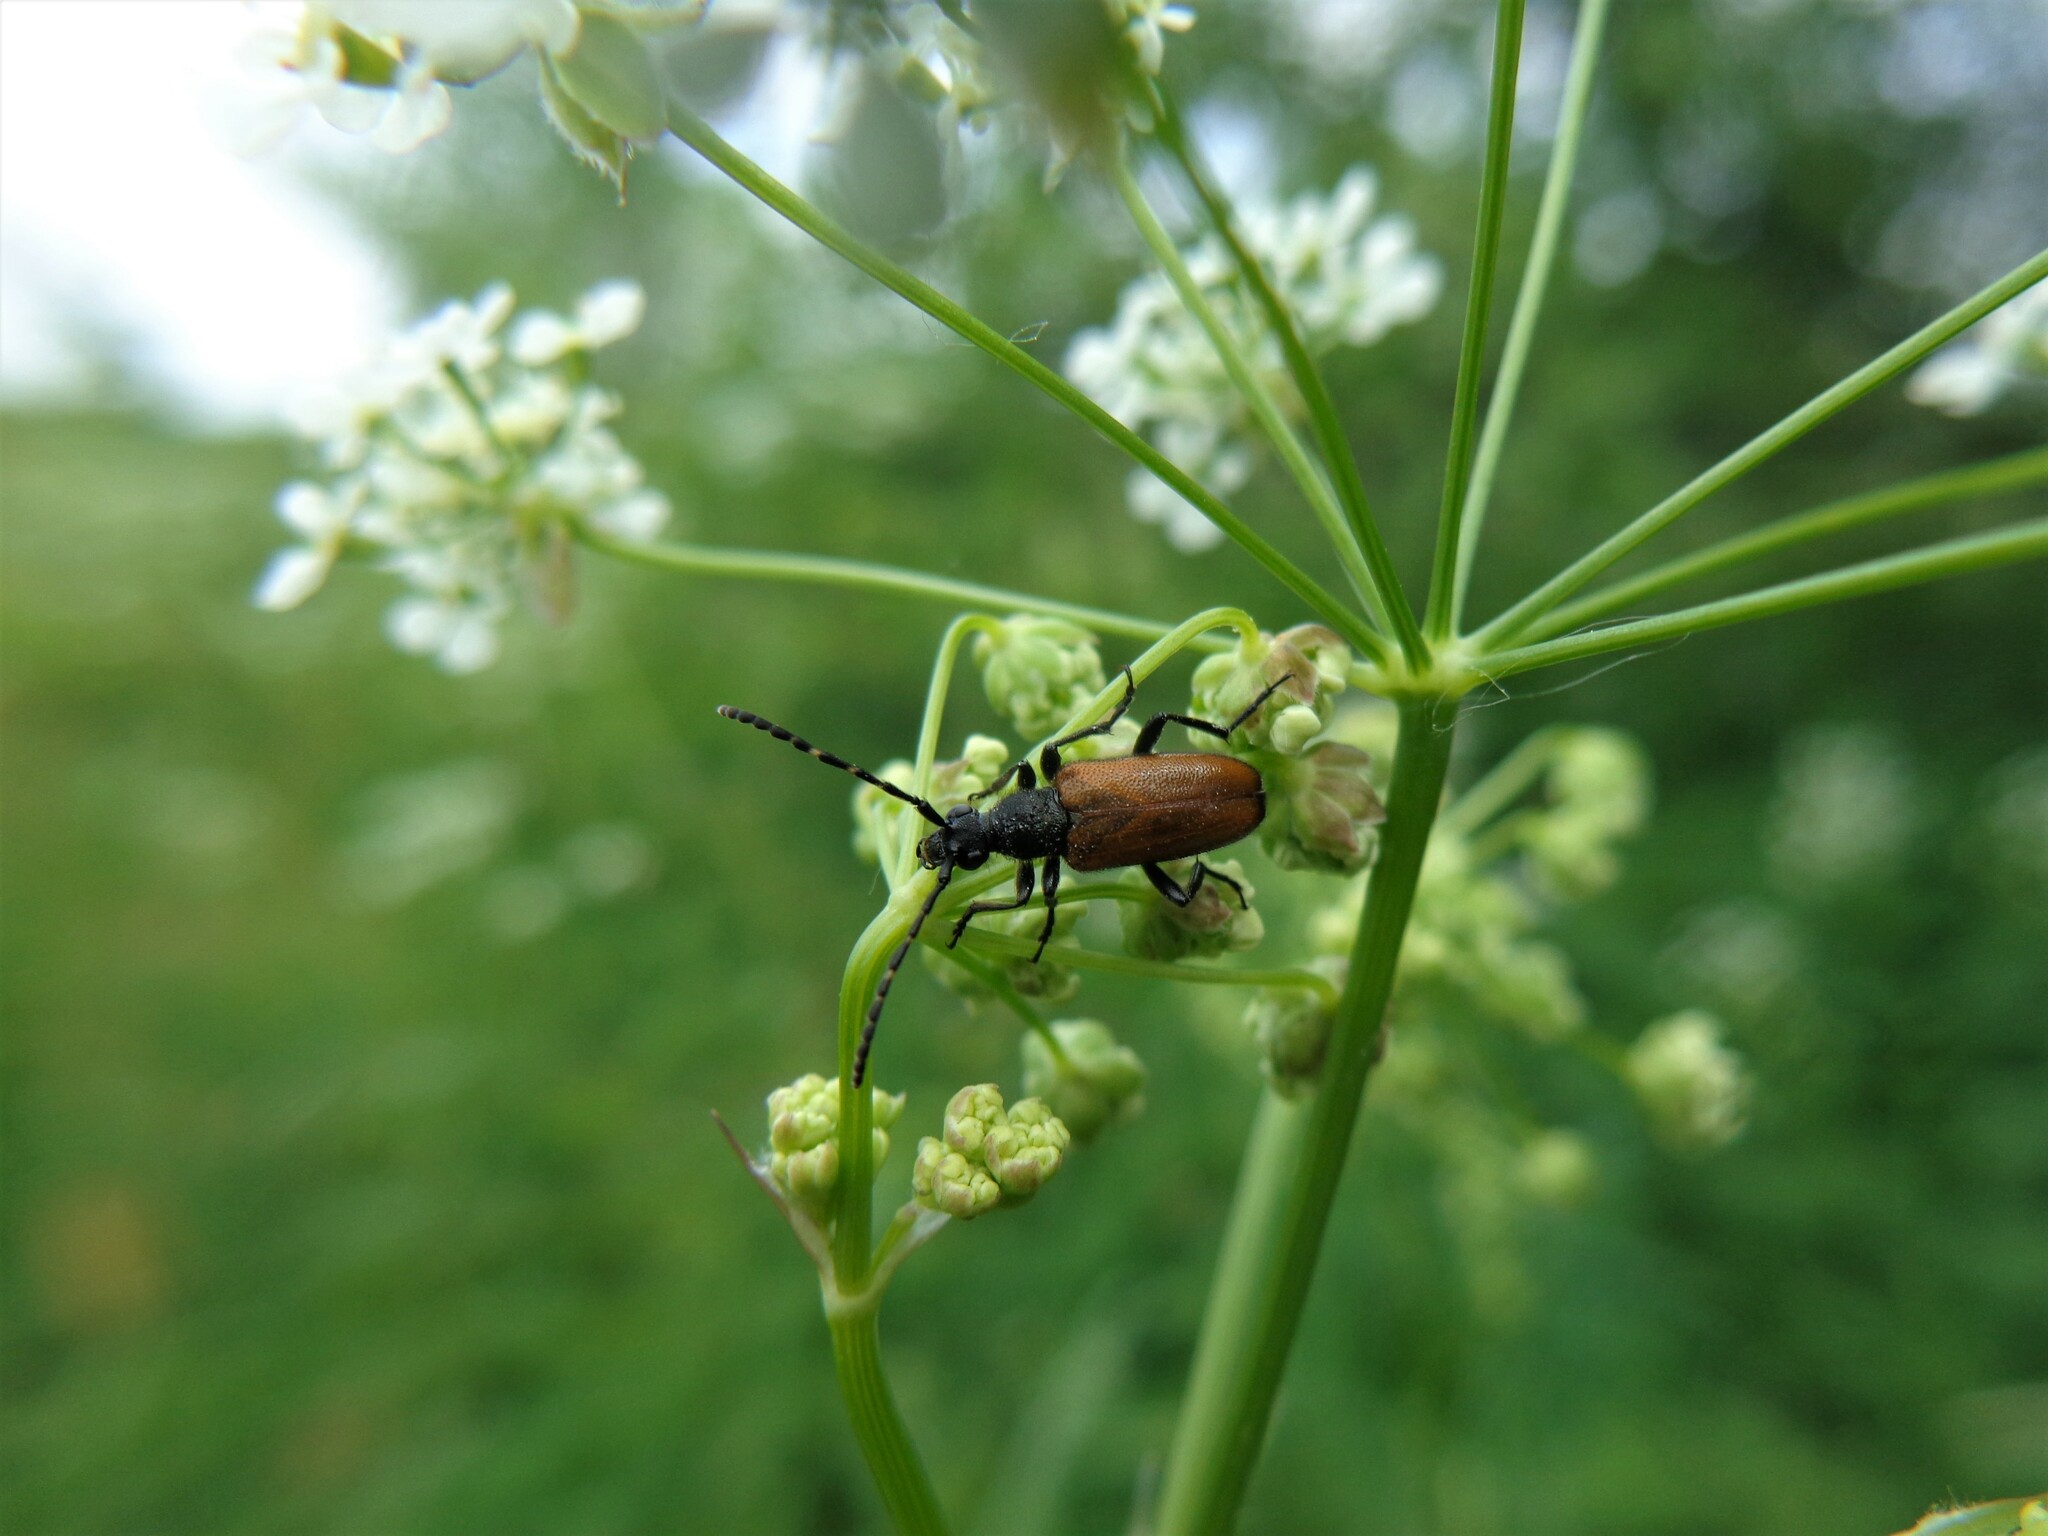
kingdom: Animalia
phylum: Arthropoda
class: Insecta
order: Coleoptera
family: Cerambycidae
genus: Paracorymbia
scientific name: Paracorymbia maculicornis
